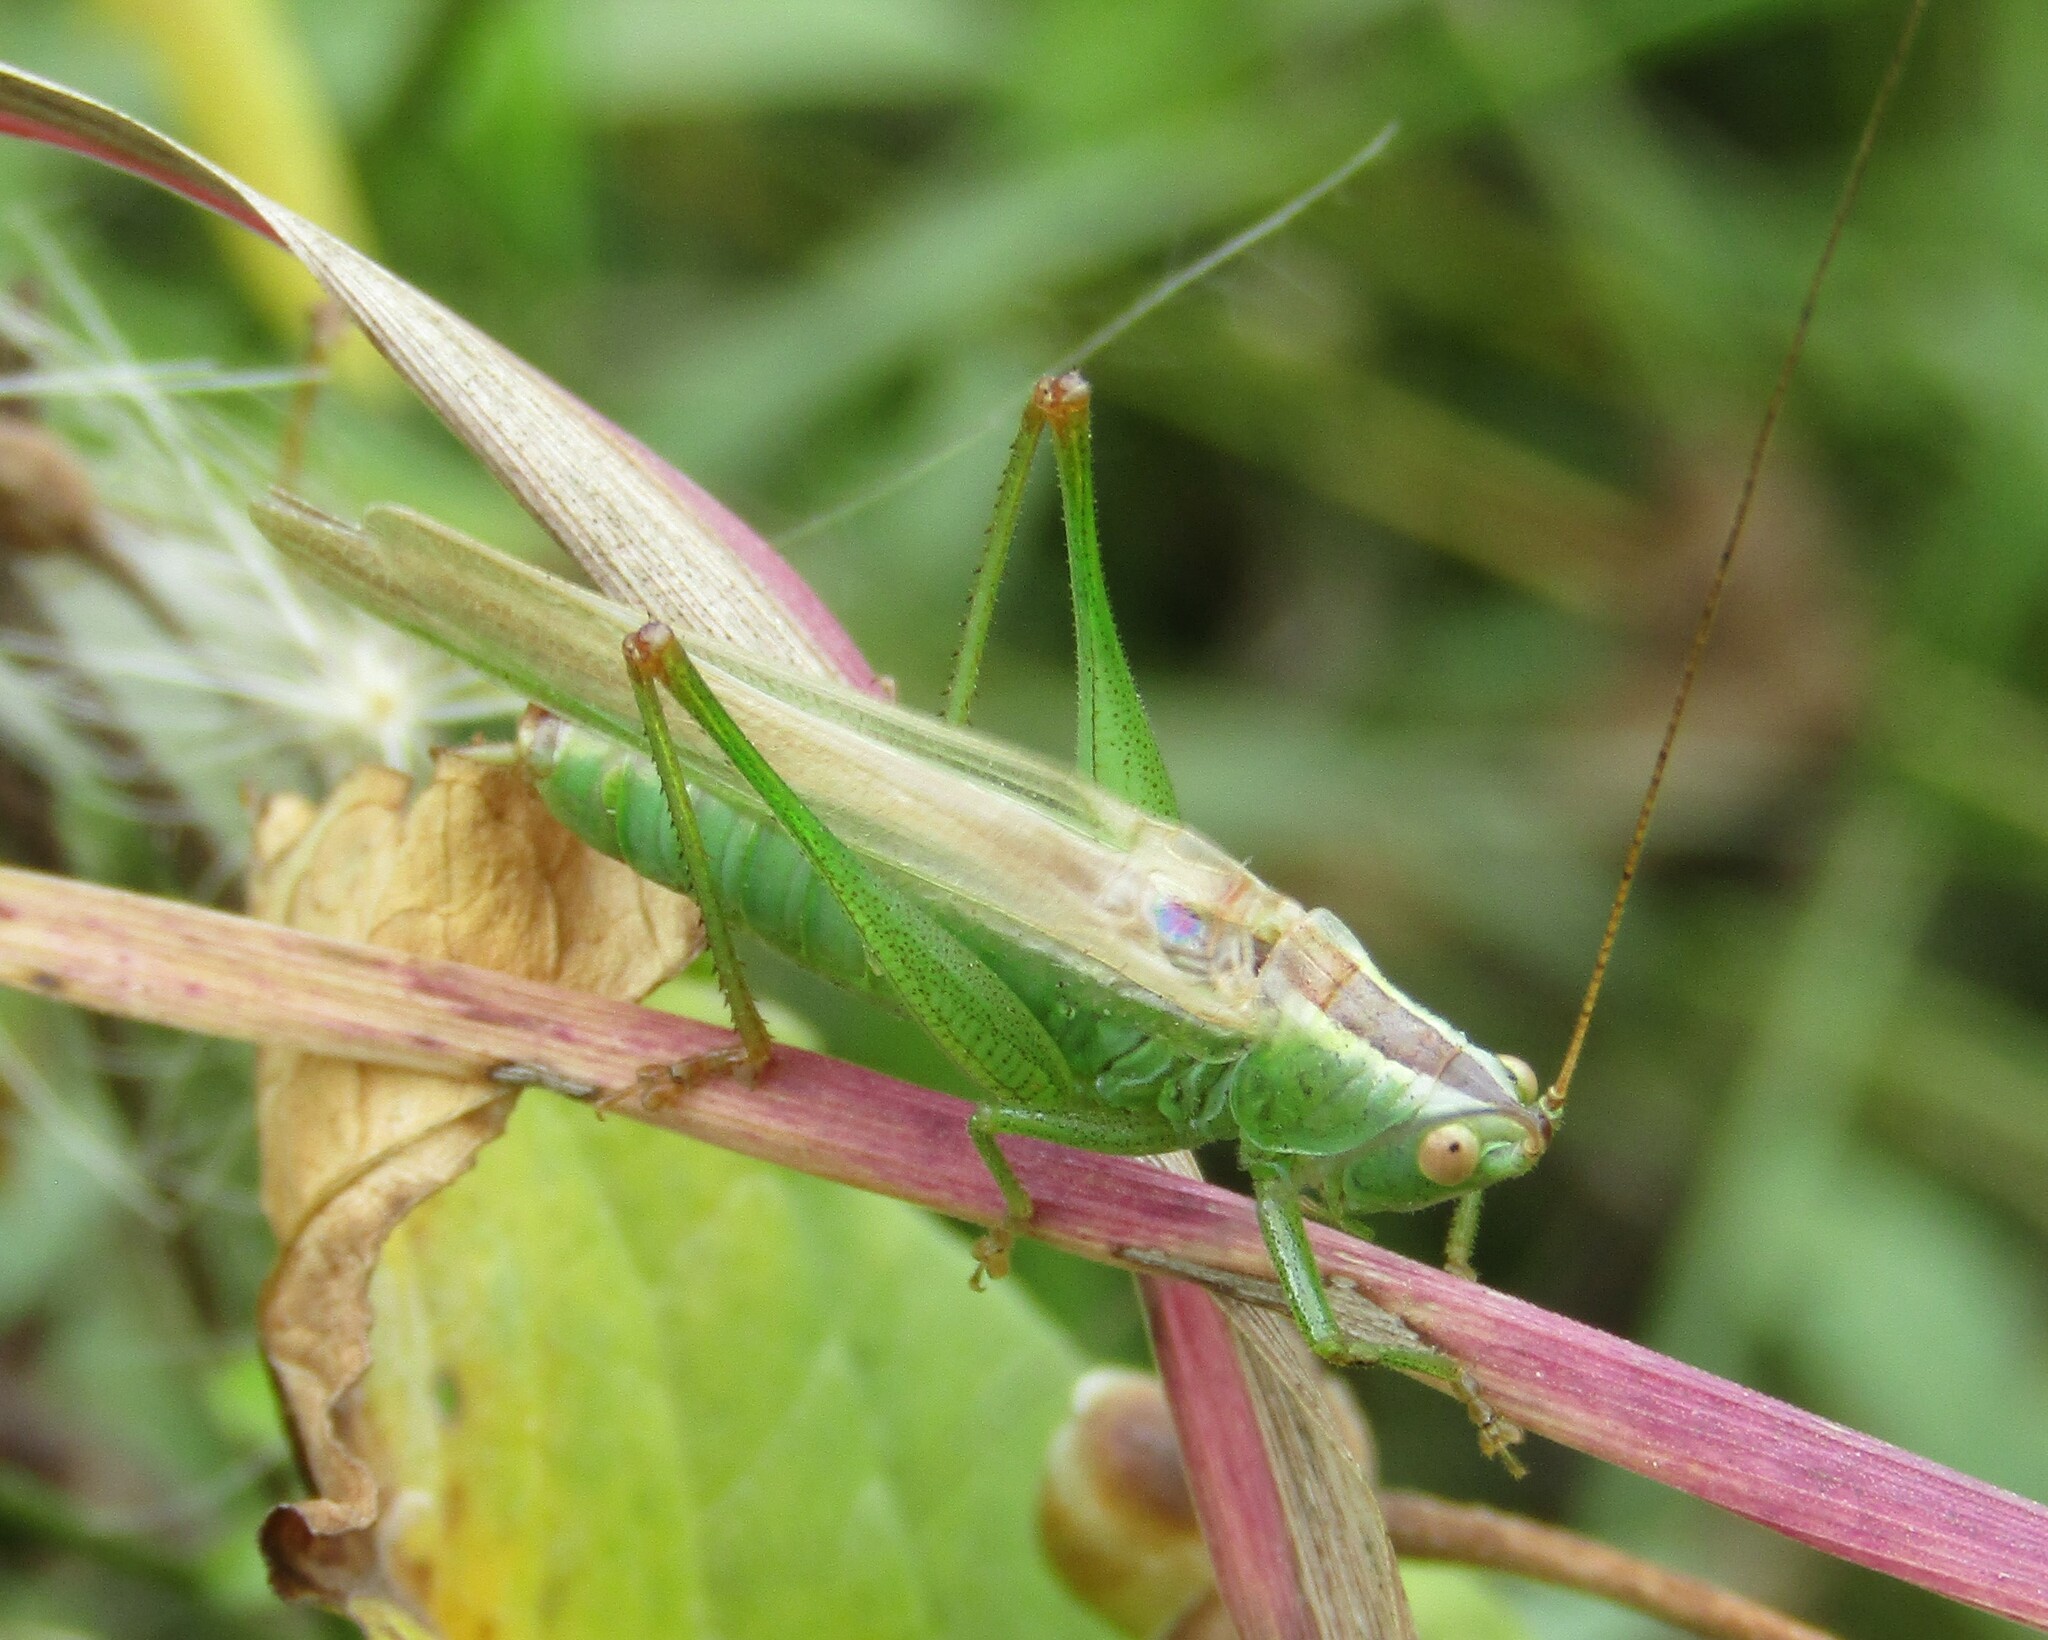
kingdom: Animalia
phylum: Arthropoda
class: Insecta
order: Orthoptera
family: Tettigoniidae
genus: Conocephalus
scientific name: Conocephalus fuscus
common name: Long-winged conehead
